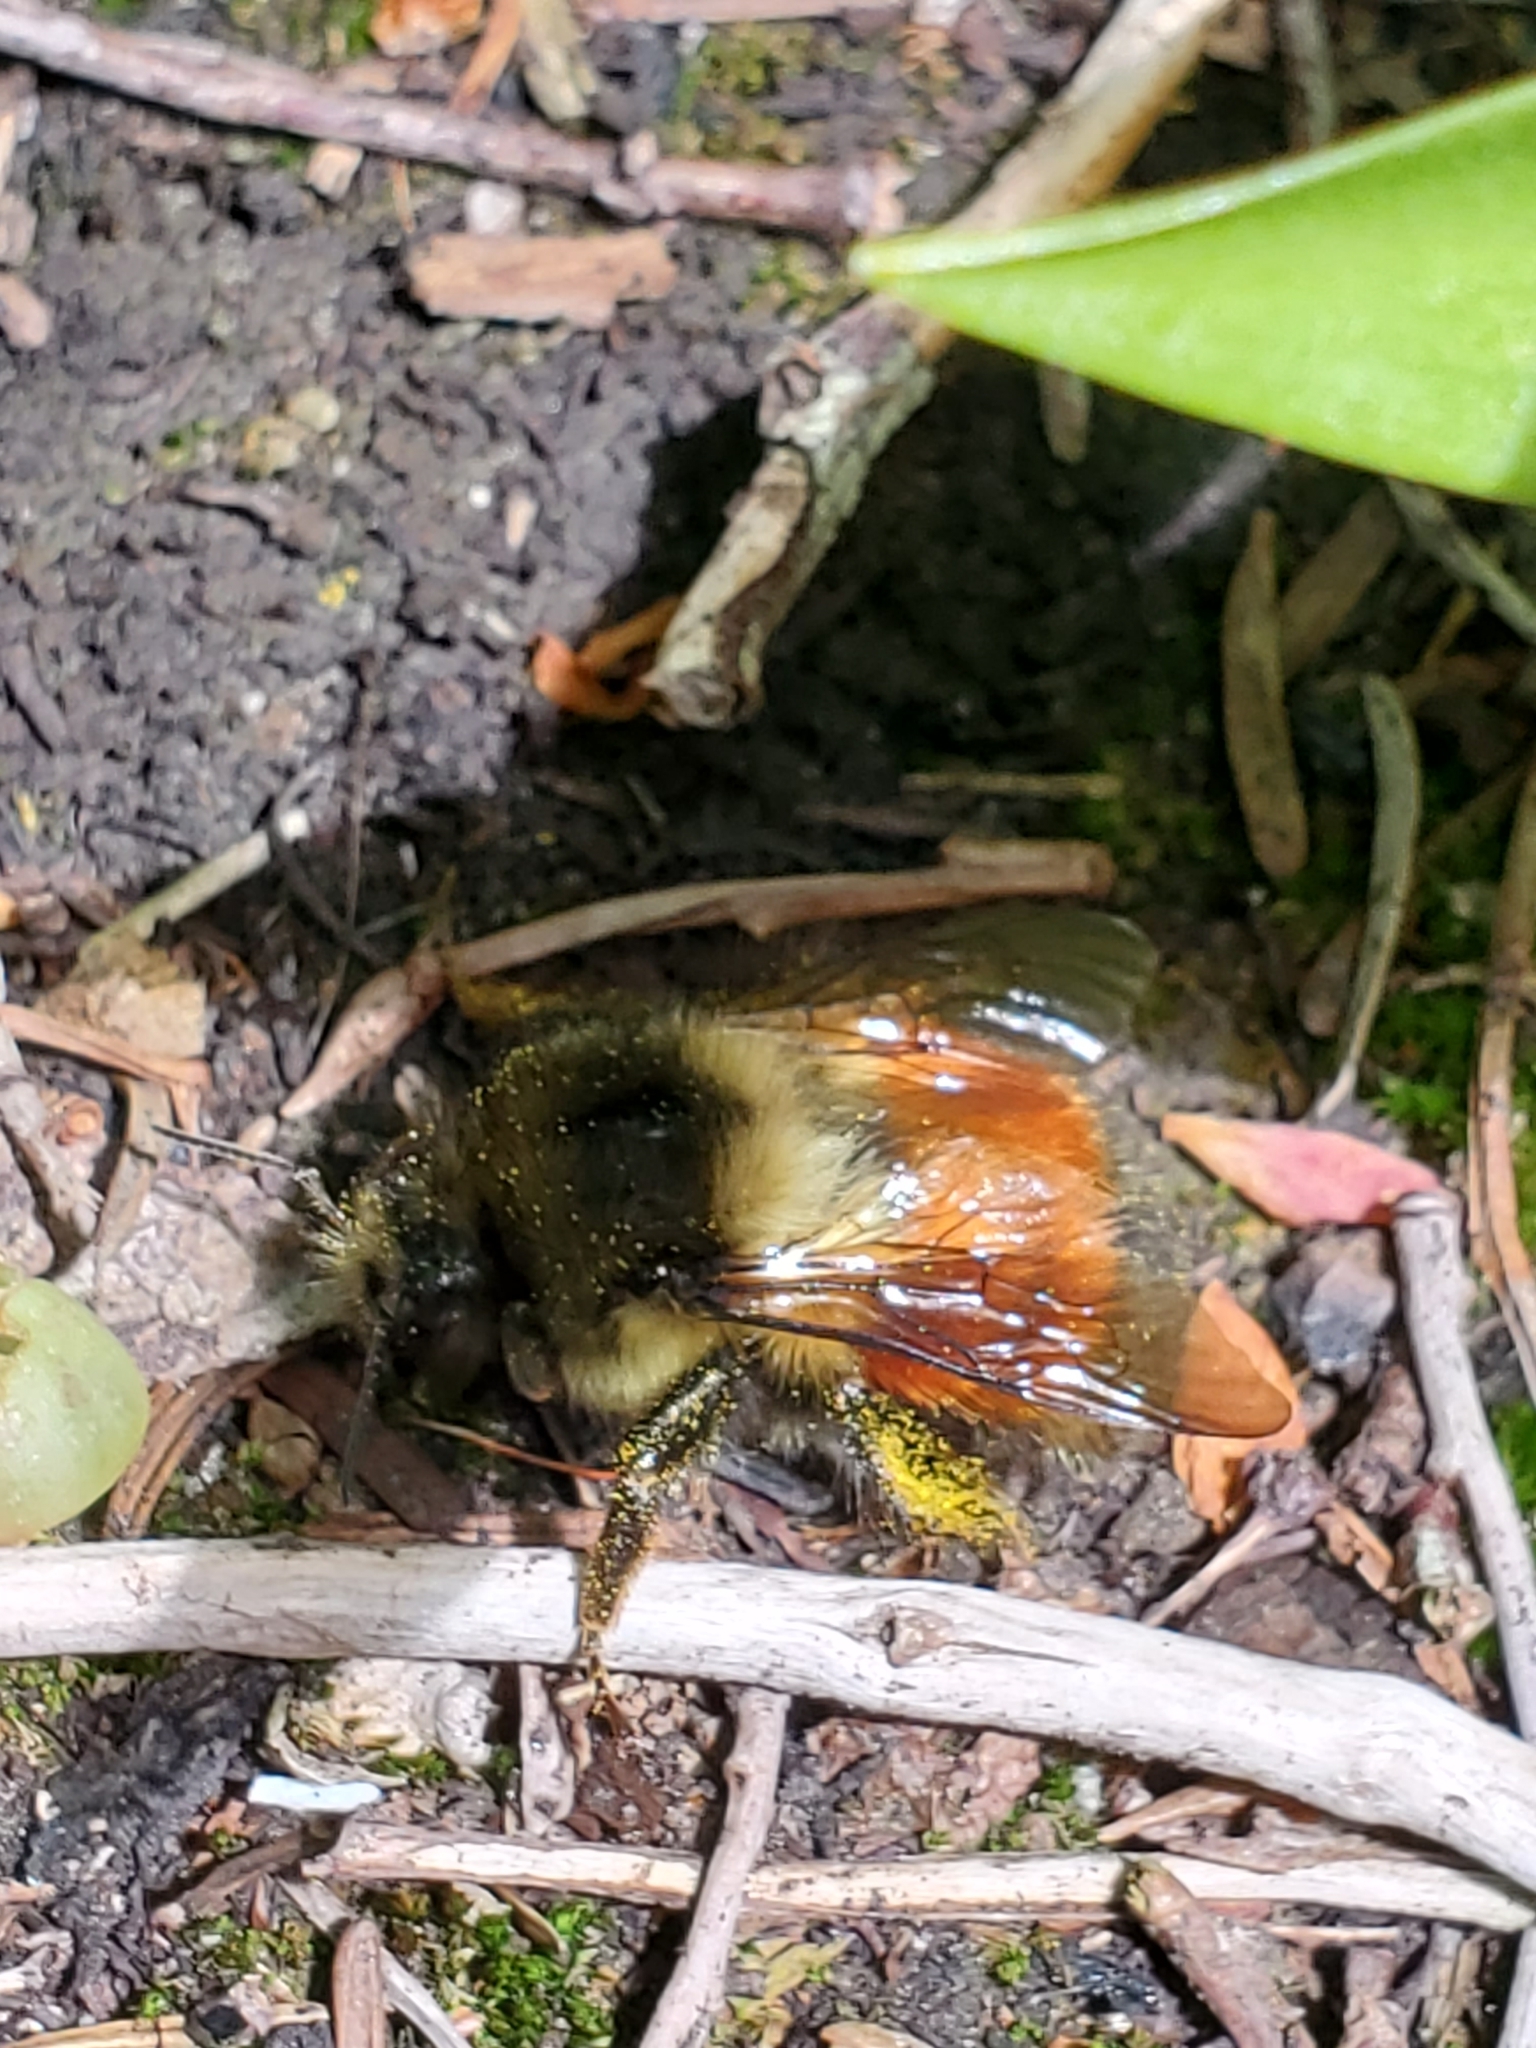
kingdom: Animalia
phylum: Arthropoda
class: Insecta
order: Hymenoptera
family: Apidae
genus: Bombus
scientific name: Bombus melanopygus
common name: Black tail bumble bee
